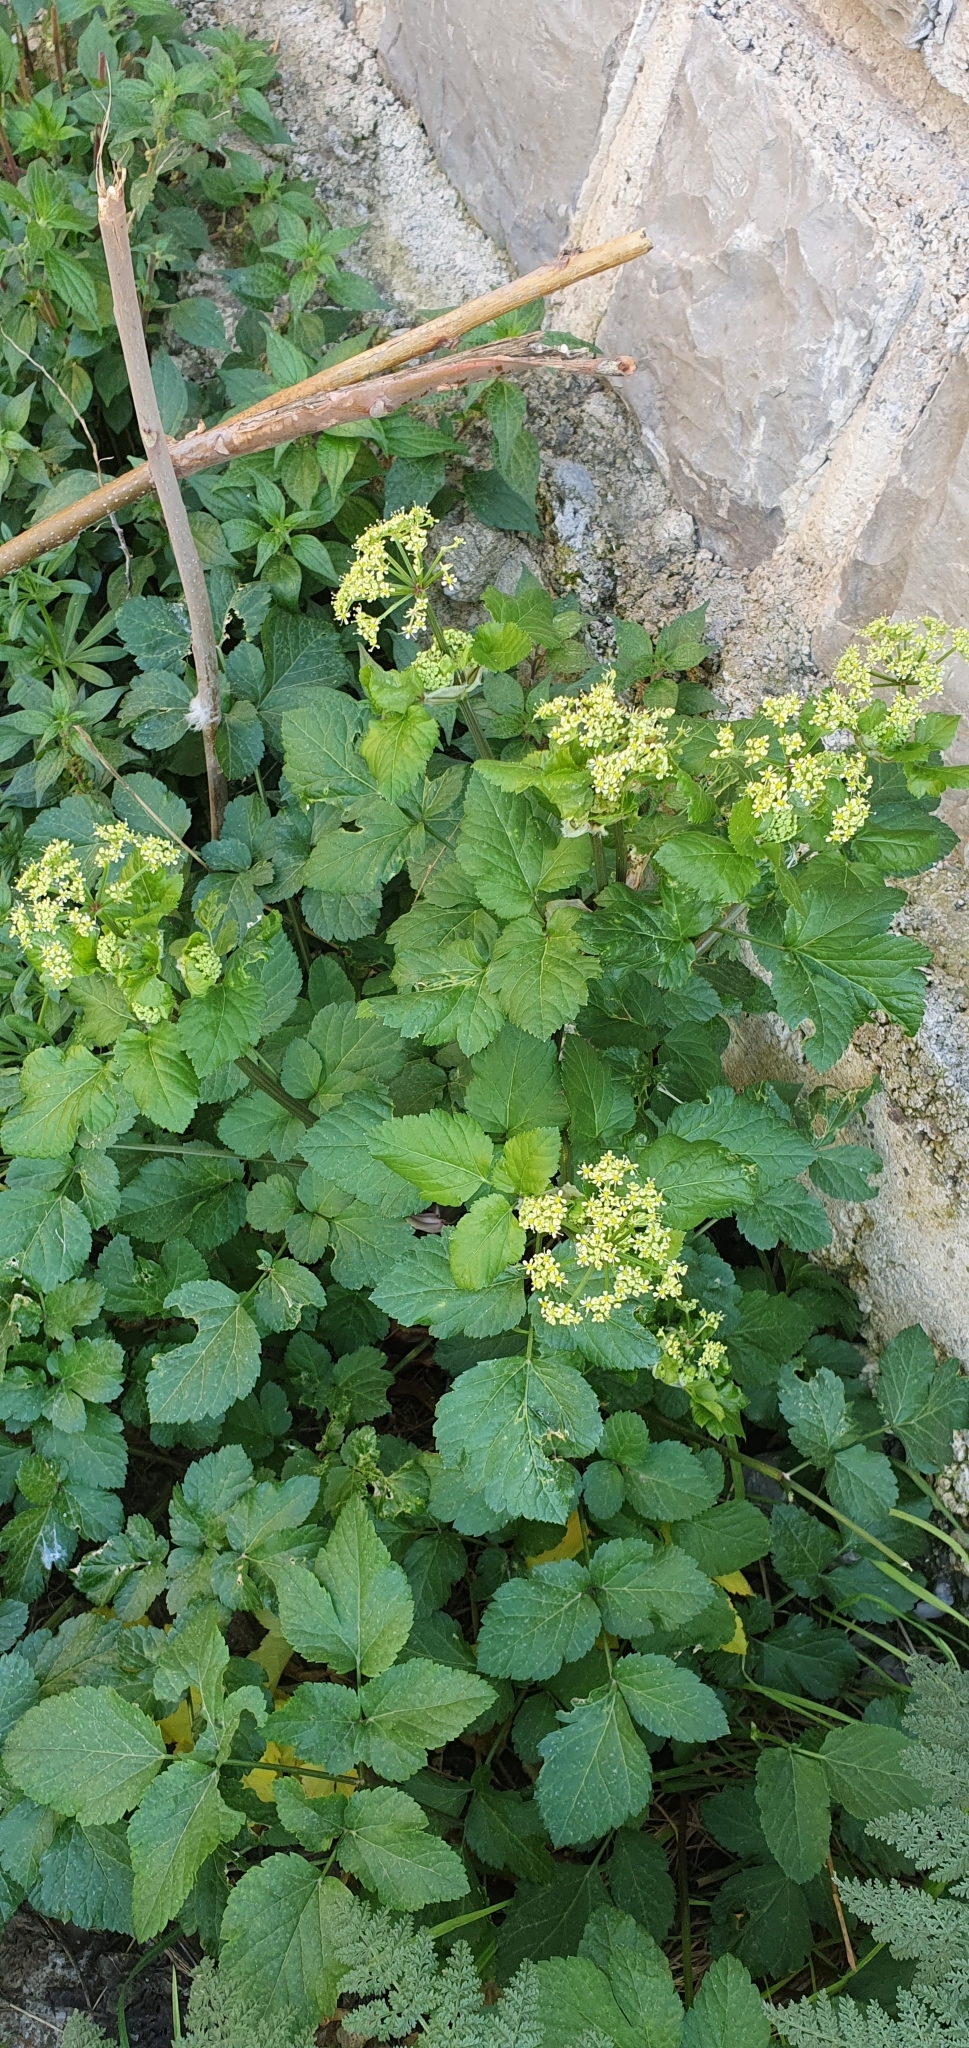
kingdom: Plantae
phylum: Tracheophyta
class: Magnoliopsida
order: Apiales
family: Apiaceae
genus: Smyrnium
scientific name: Smyrnium olusatrum
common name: Alexanders
